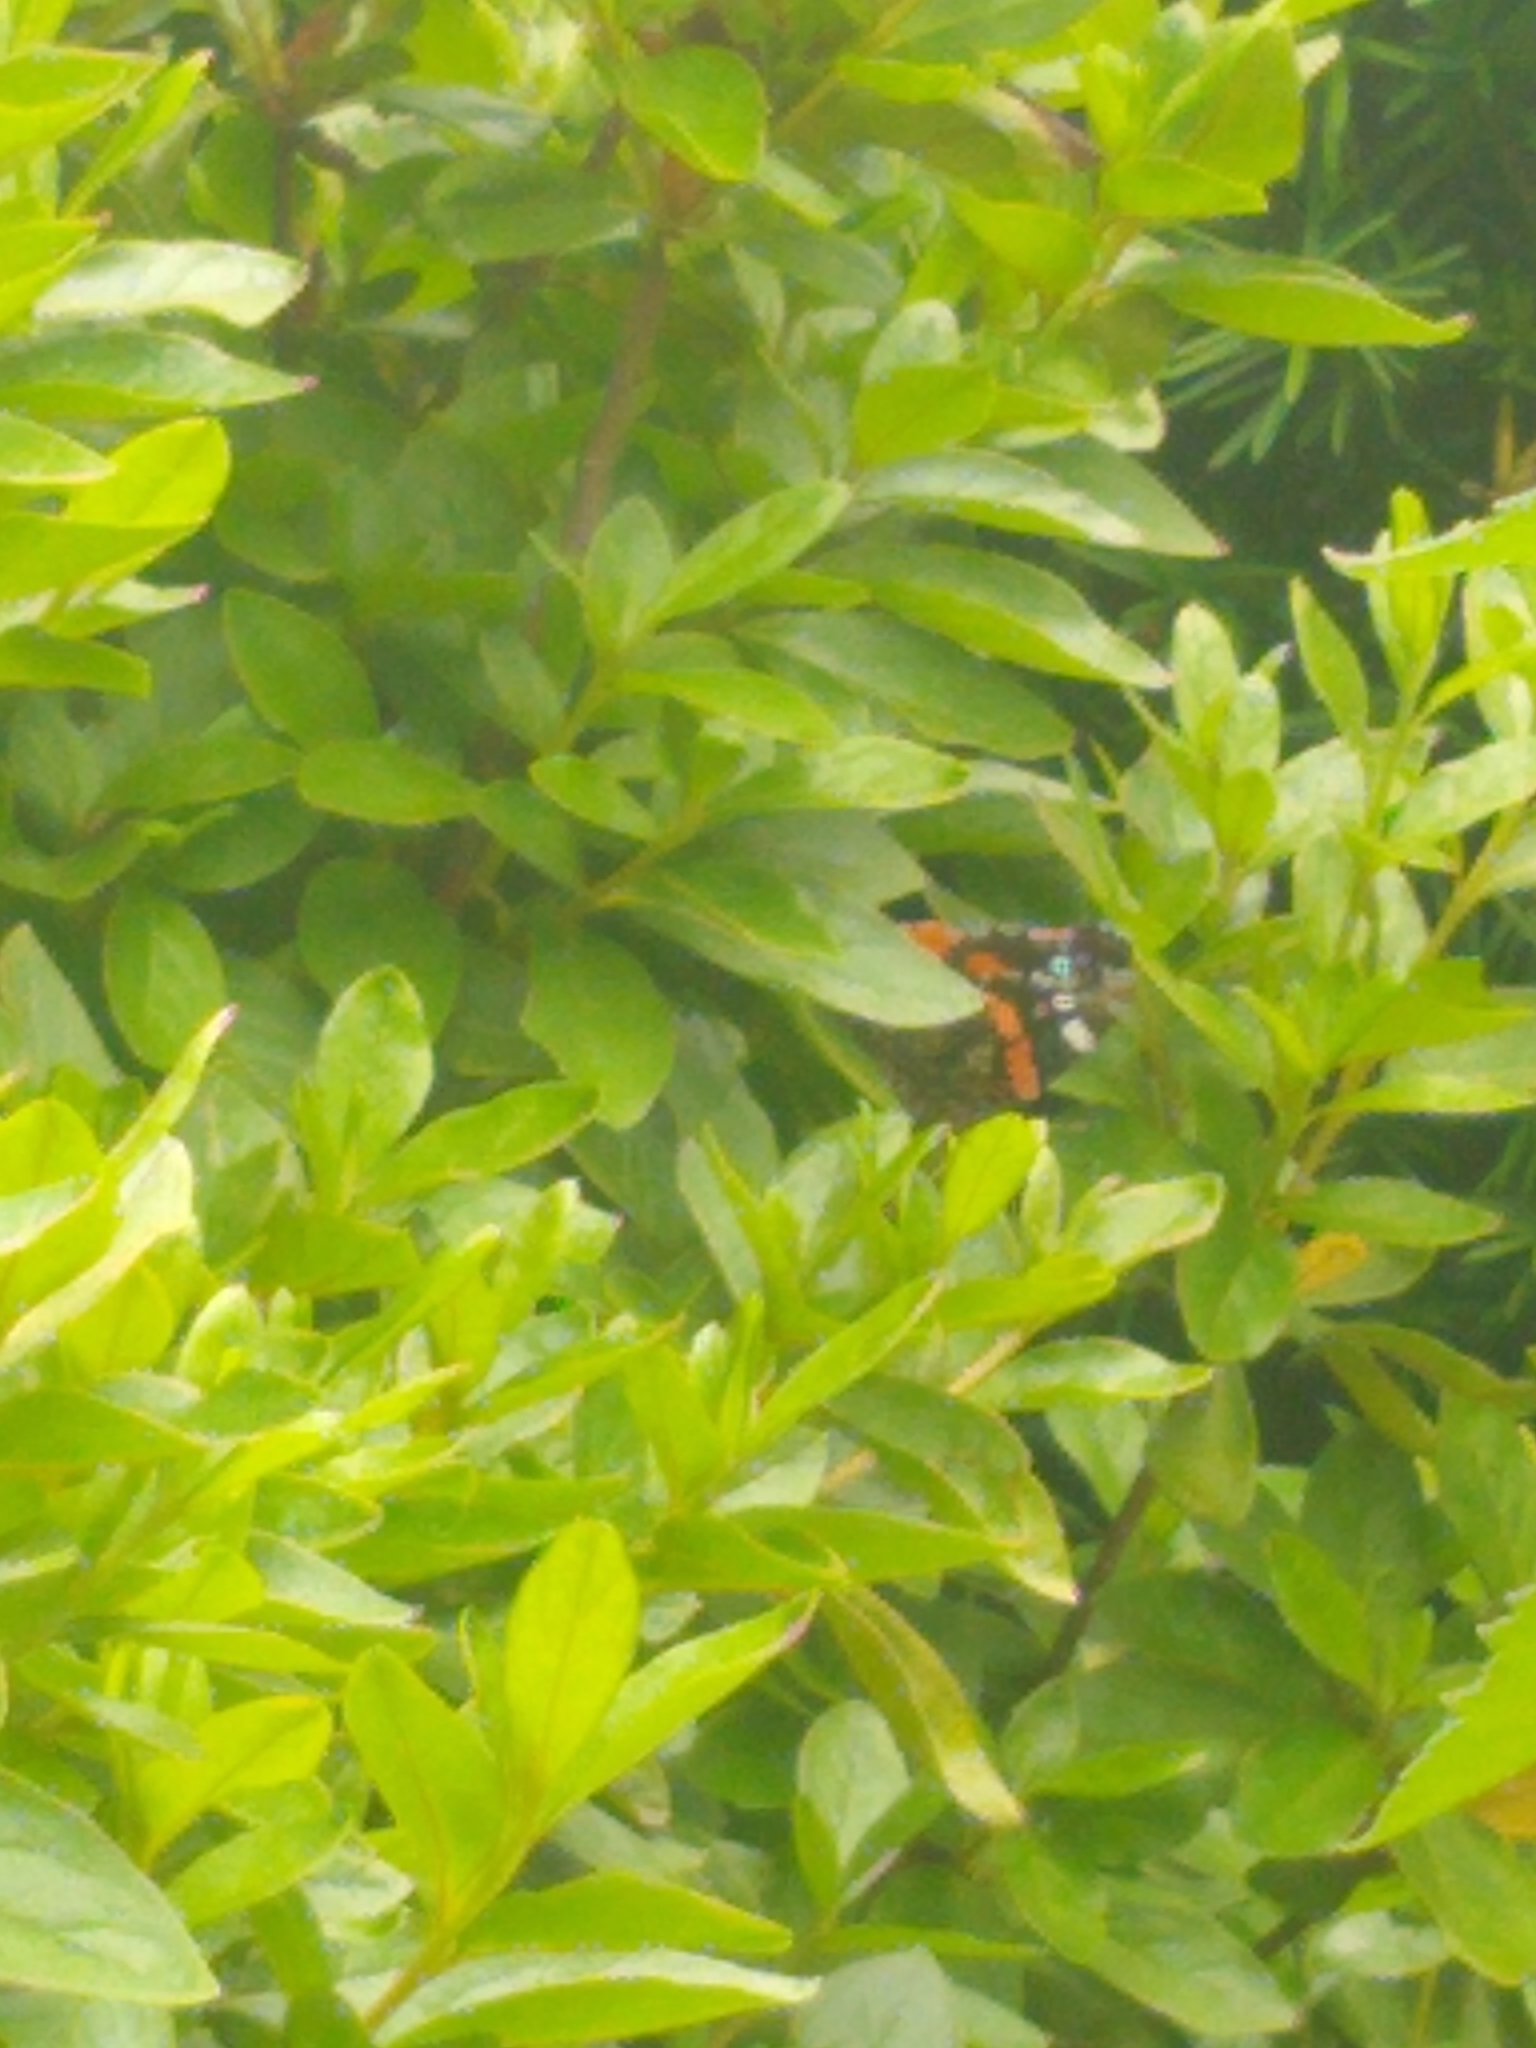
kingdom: Animalia
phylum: Arthropoda
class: Insecta
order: Lepidoptera
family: Nymphalidae
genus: Vanessa
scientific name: Vanessa atalanta
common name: Red admiral
